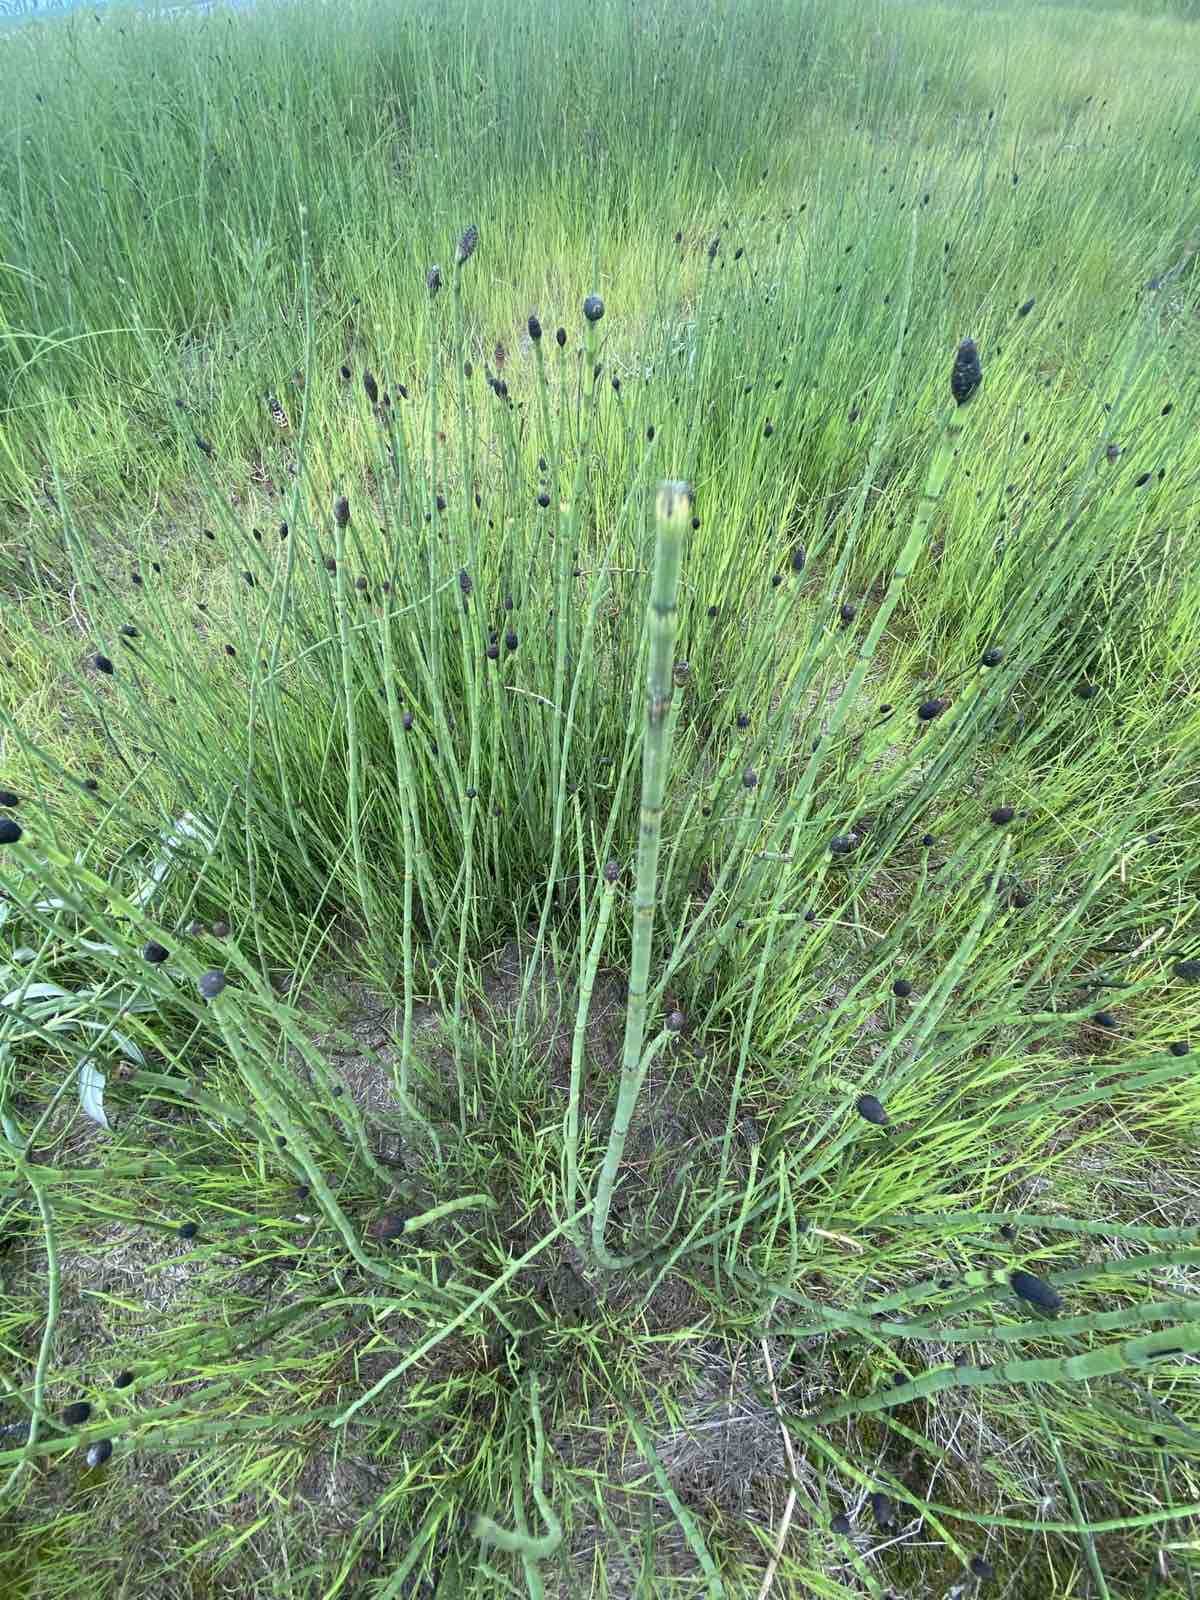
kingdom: Plantae
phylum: Tracheophyta
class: Polypodiopsida
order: Equisetales
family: Equisetaceae
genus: Equisetum
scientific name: Equisetum fluviatile
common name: Water horsetail
